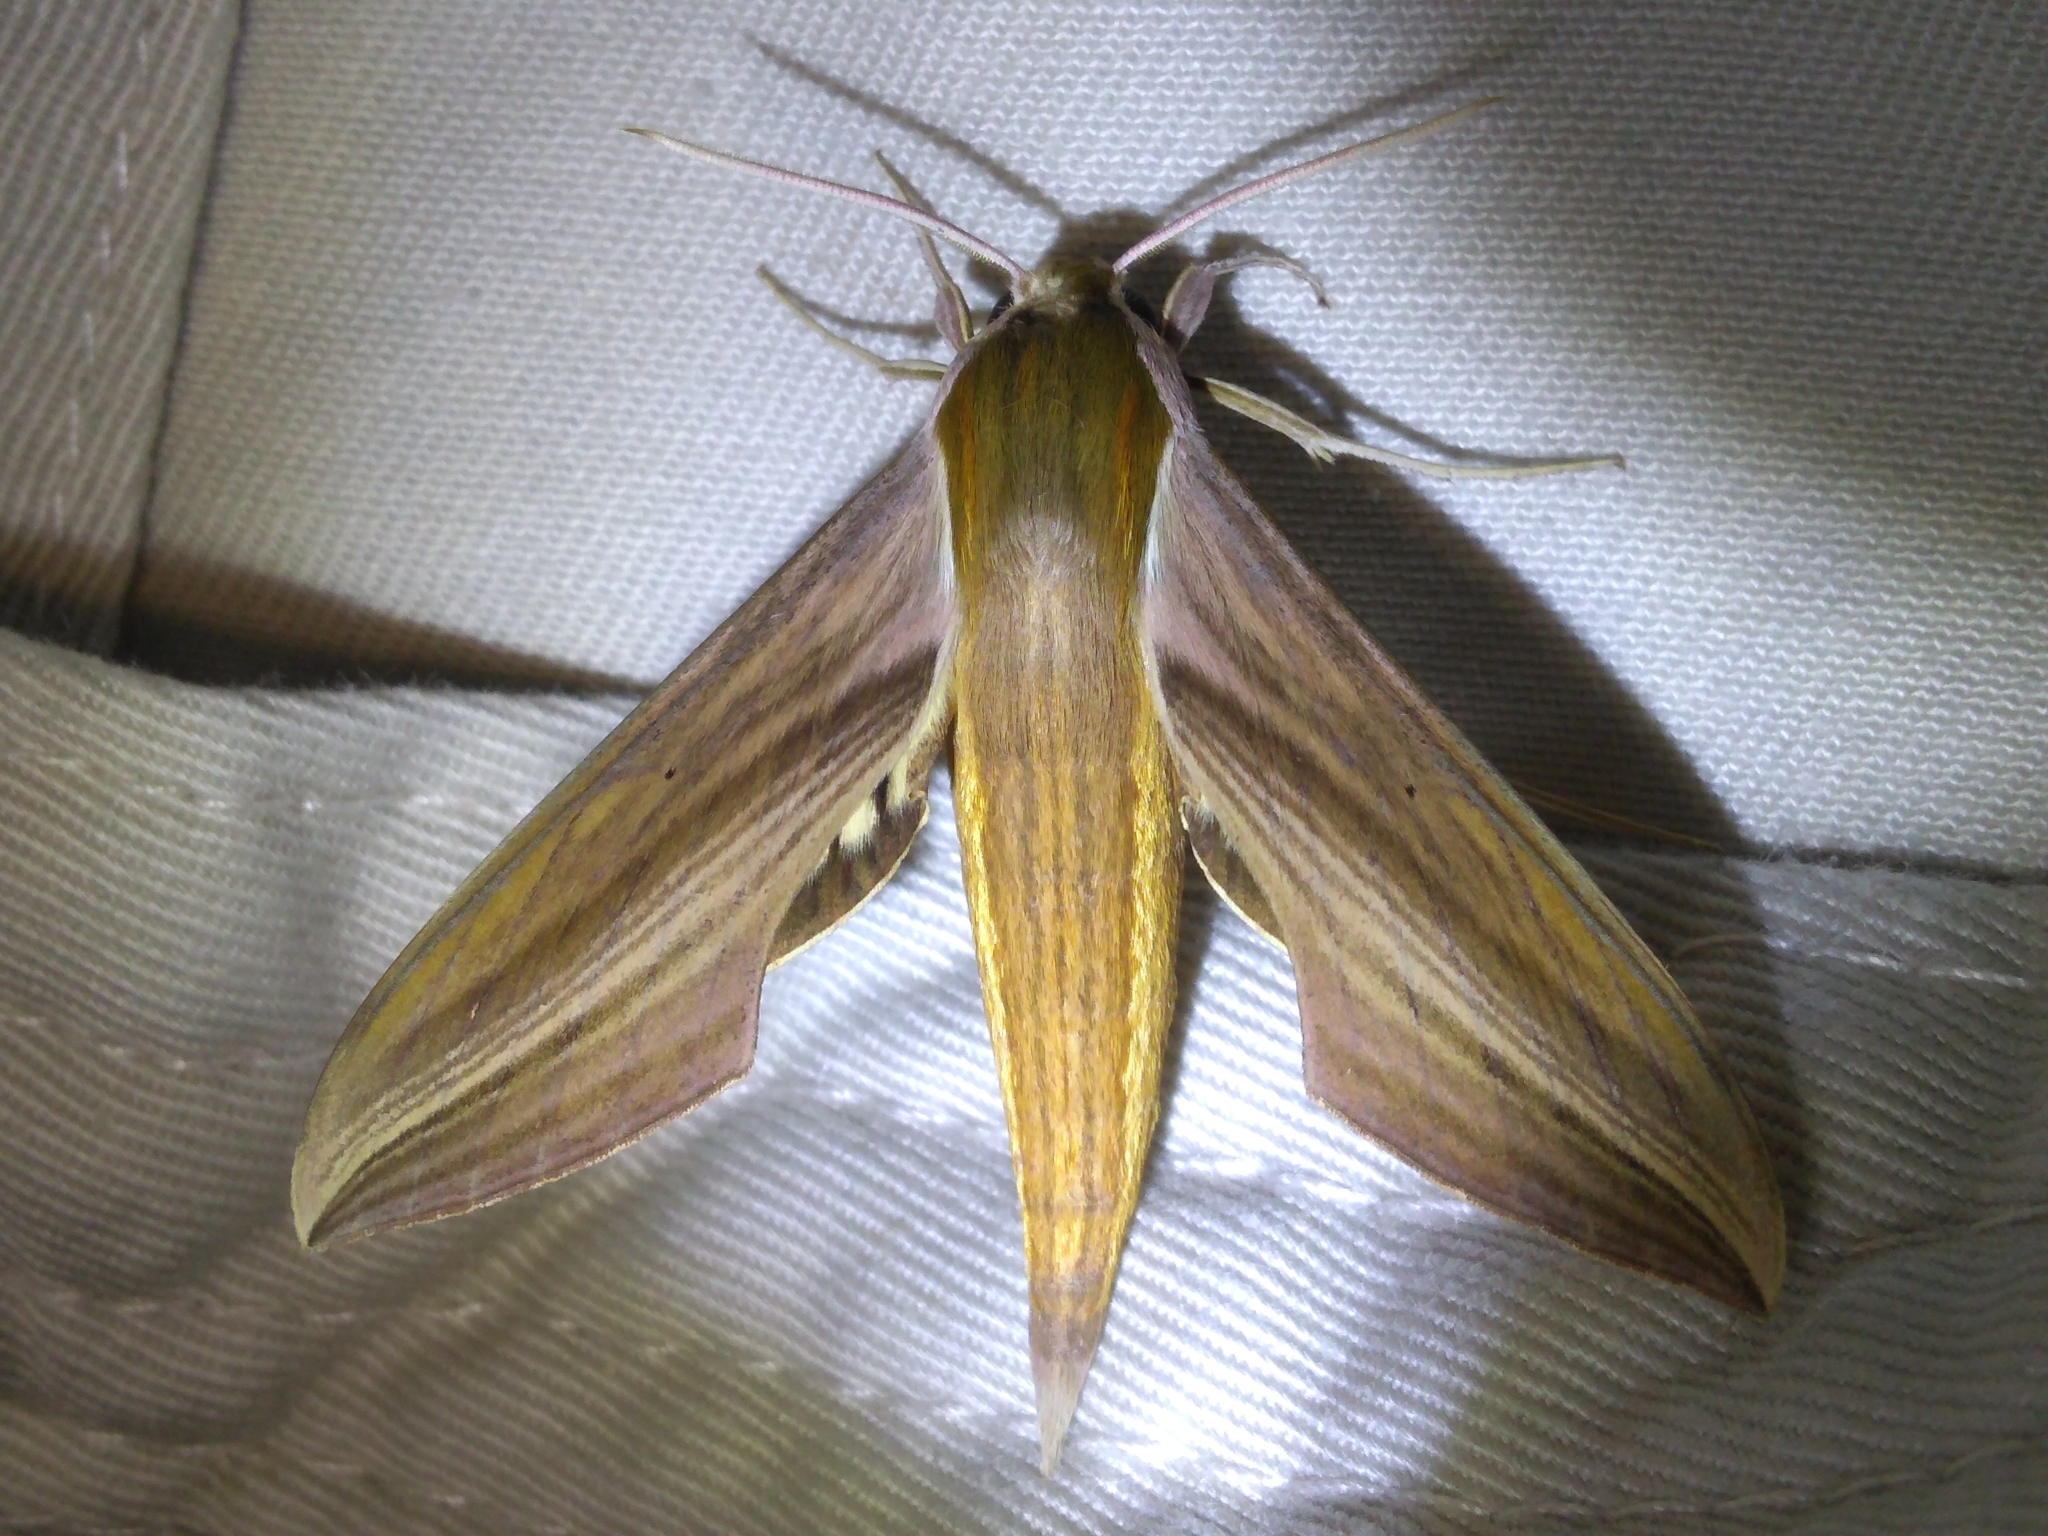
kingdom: Animalia
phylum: Arthropoda
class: Insecta
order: Lepidoptera
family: Sphingidae
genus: Xylophanes
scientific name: Xylophanes tersa
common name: Tersa sphinx
